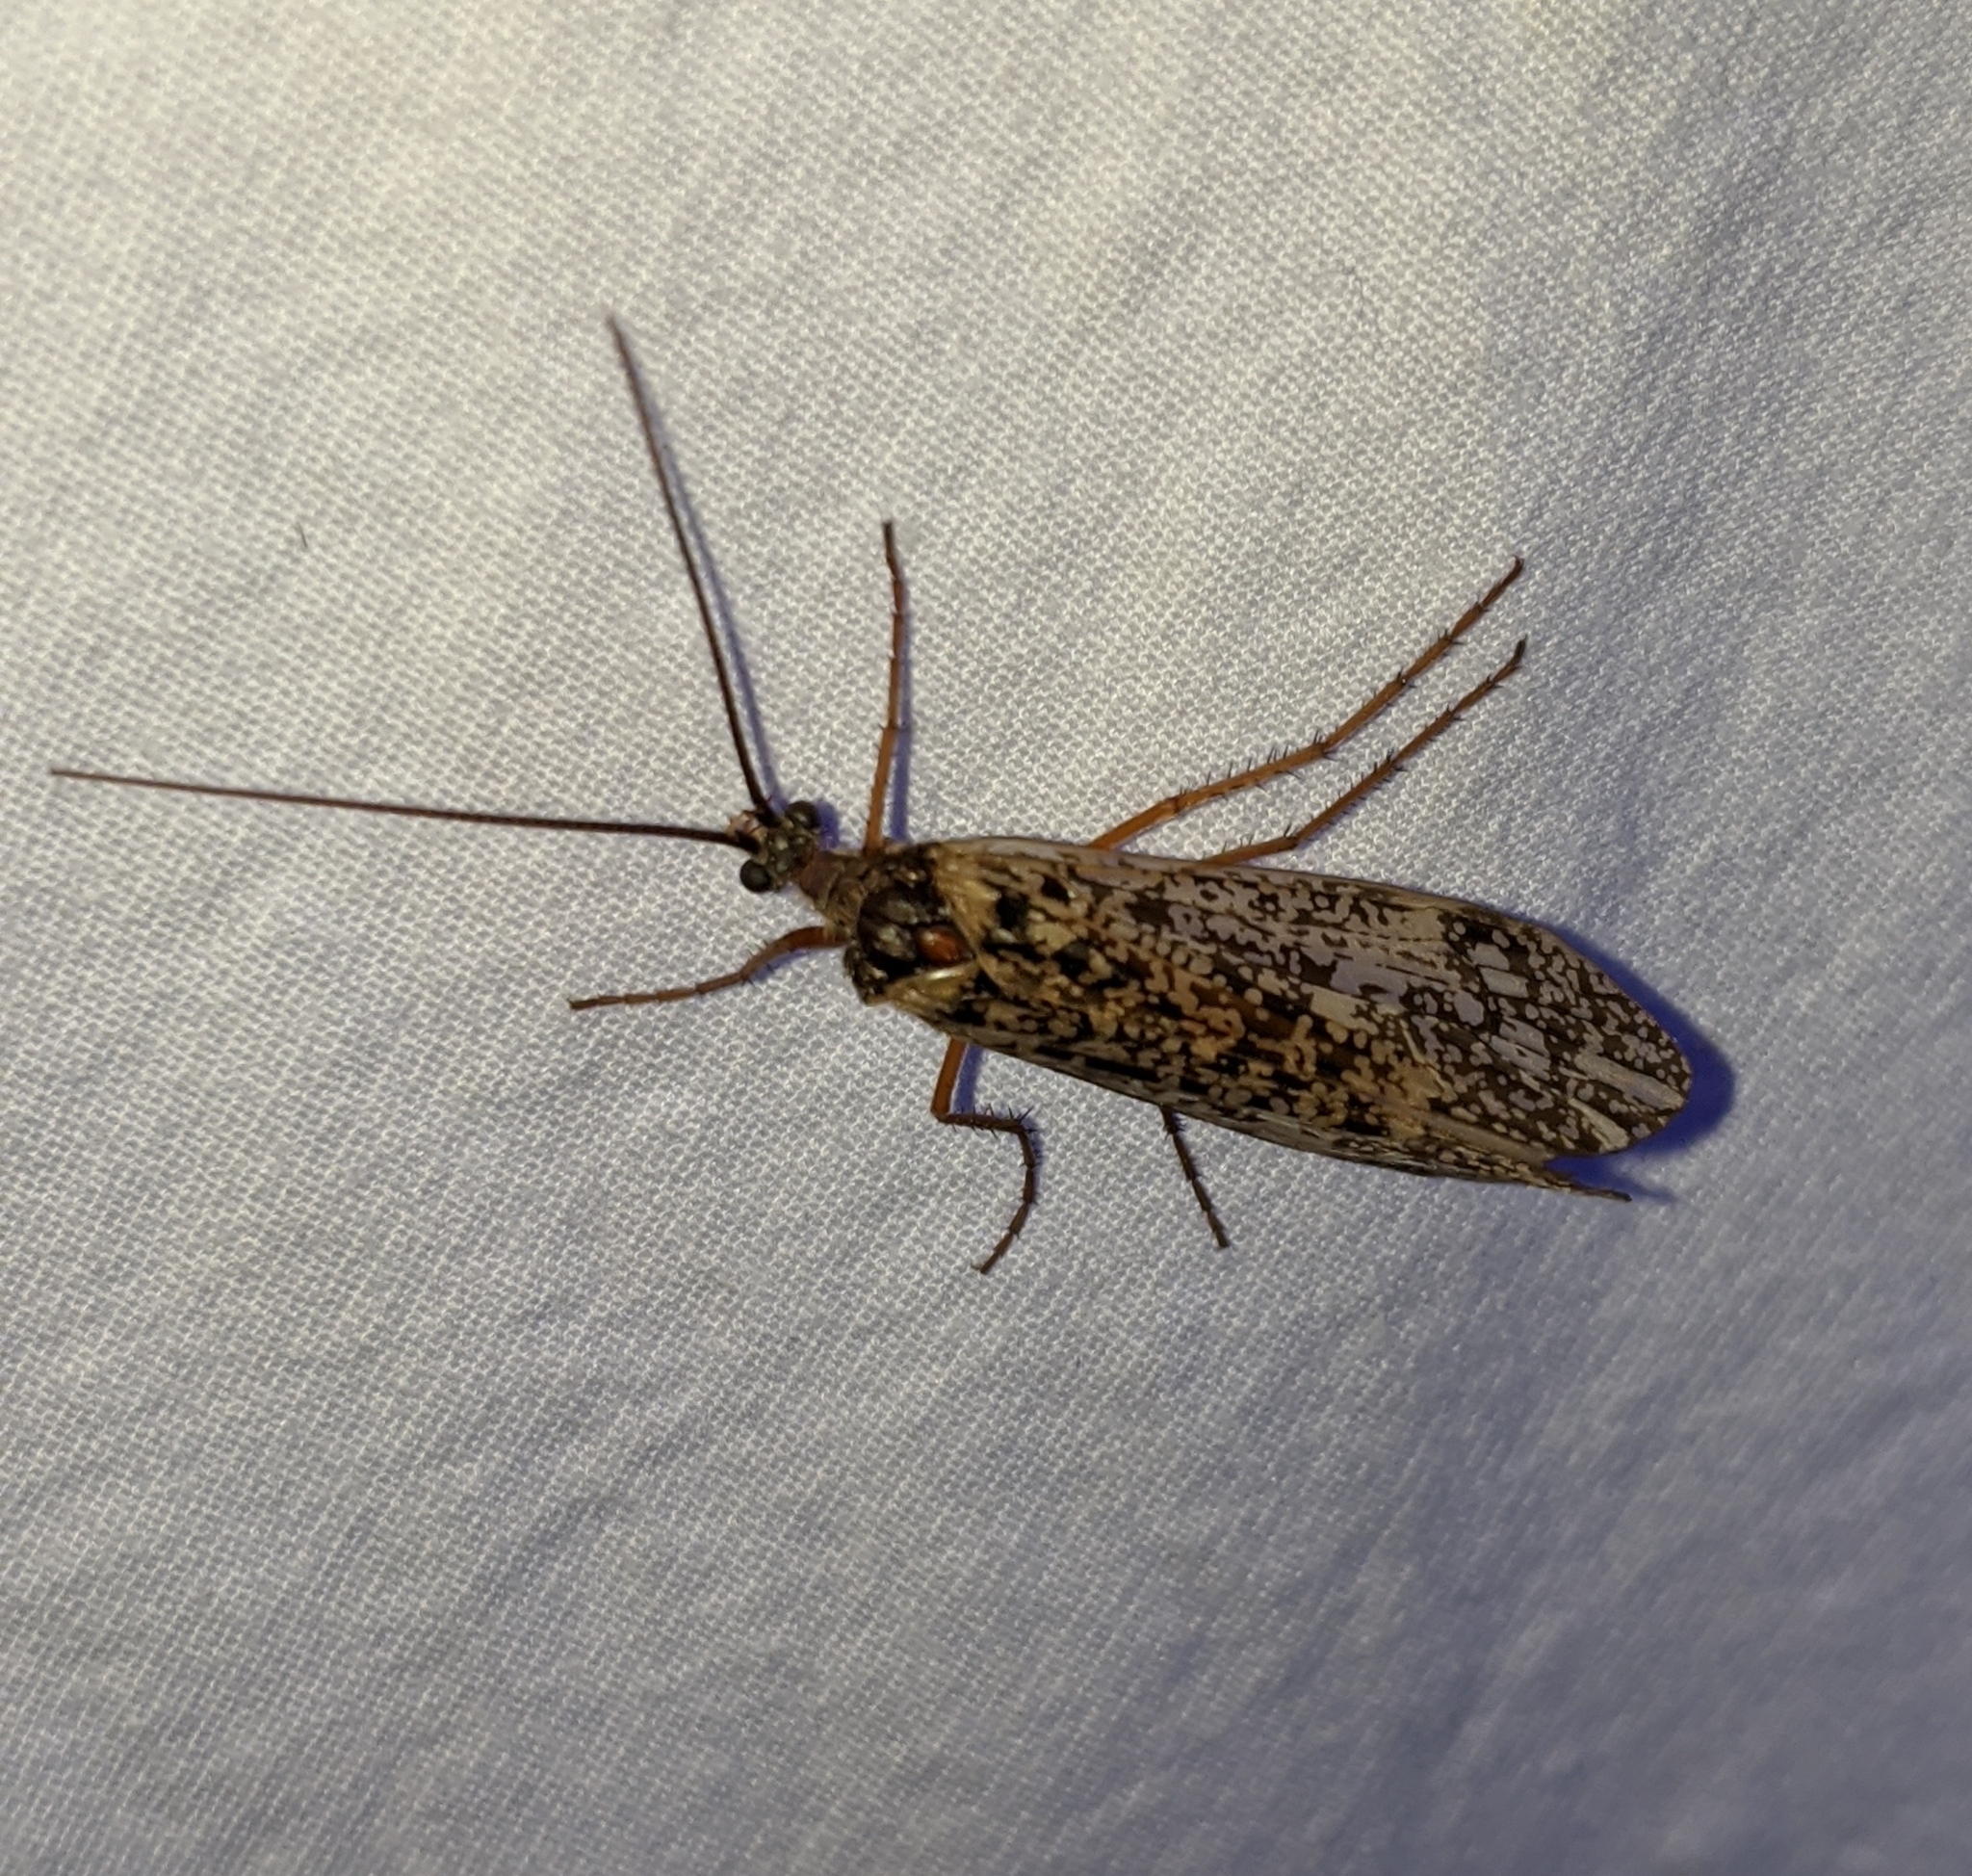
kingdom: Animalia
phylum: Arthropoda
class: Insecta
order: Trichoptera
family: Limnephilidae
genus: Clistoronia
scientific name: Clistoronia magnifica
